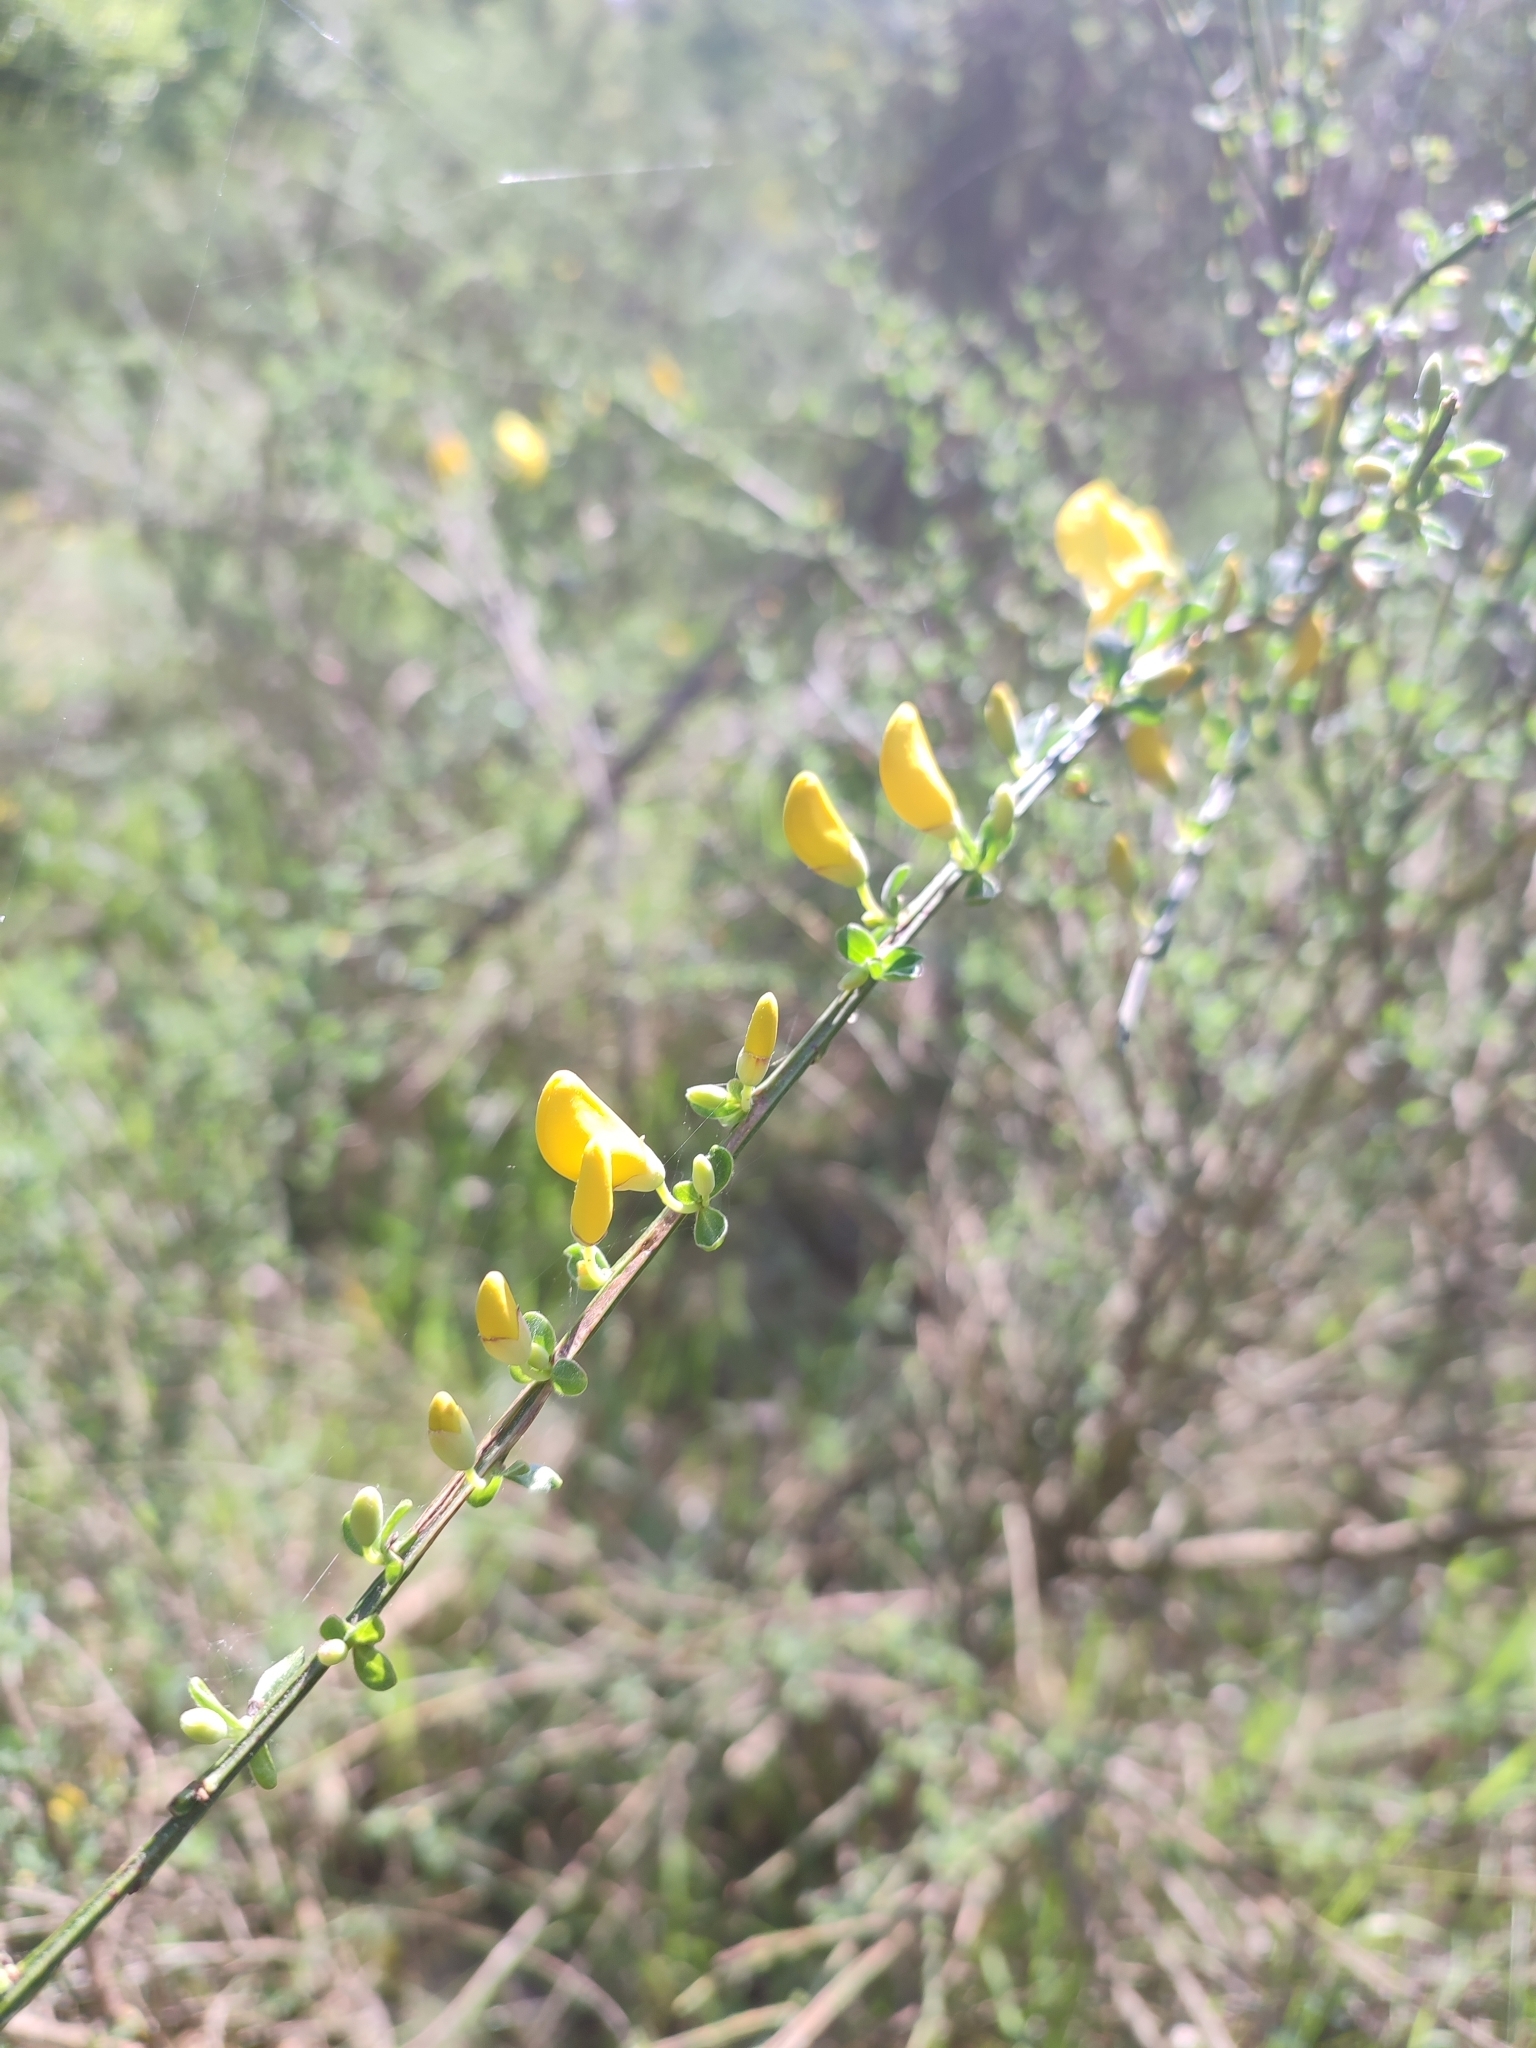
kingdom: Plantae
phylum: Tracheophyta
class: Magnoliopsida
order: Fabales
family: Fabaceae
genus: Cytisus
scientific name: Cytisus scoparius
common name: Scotch broom
